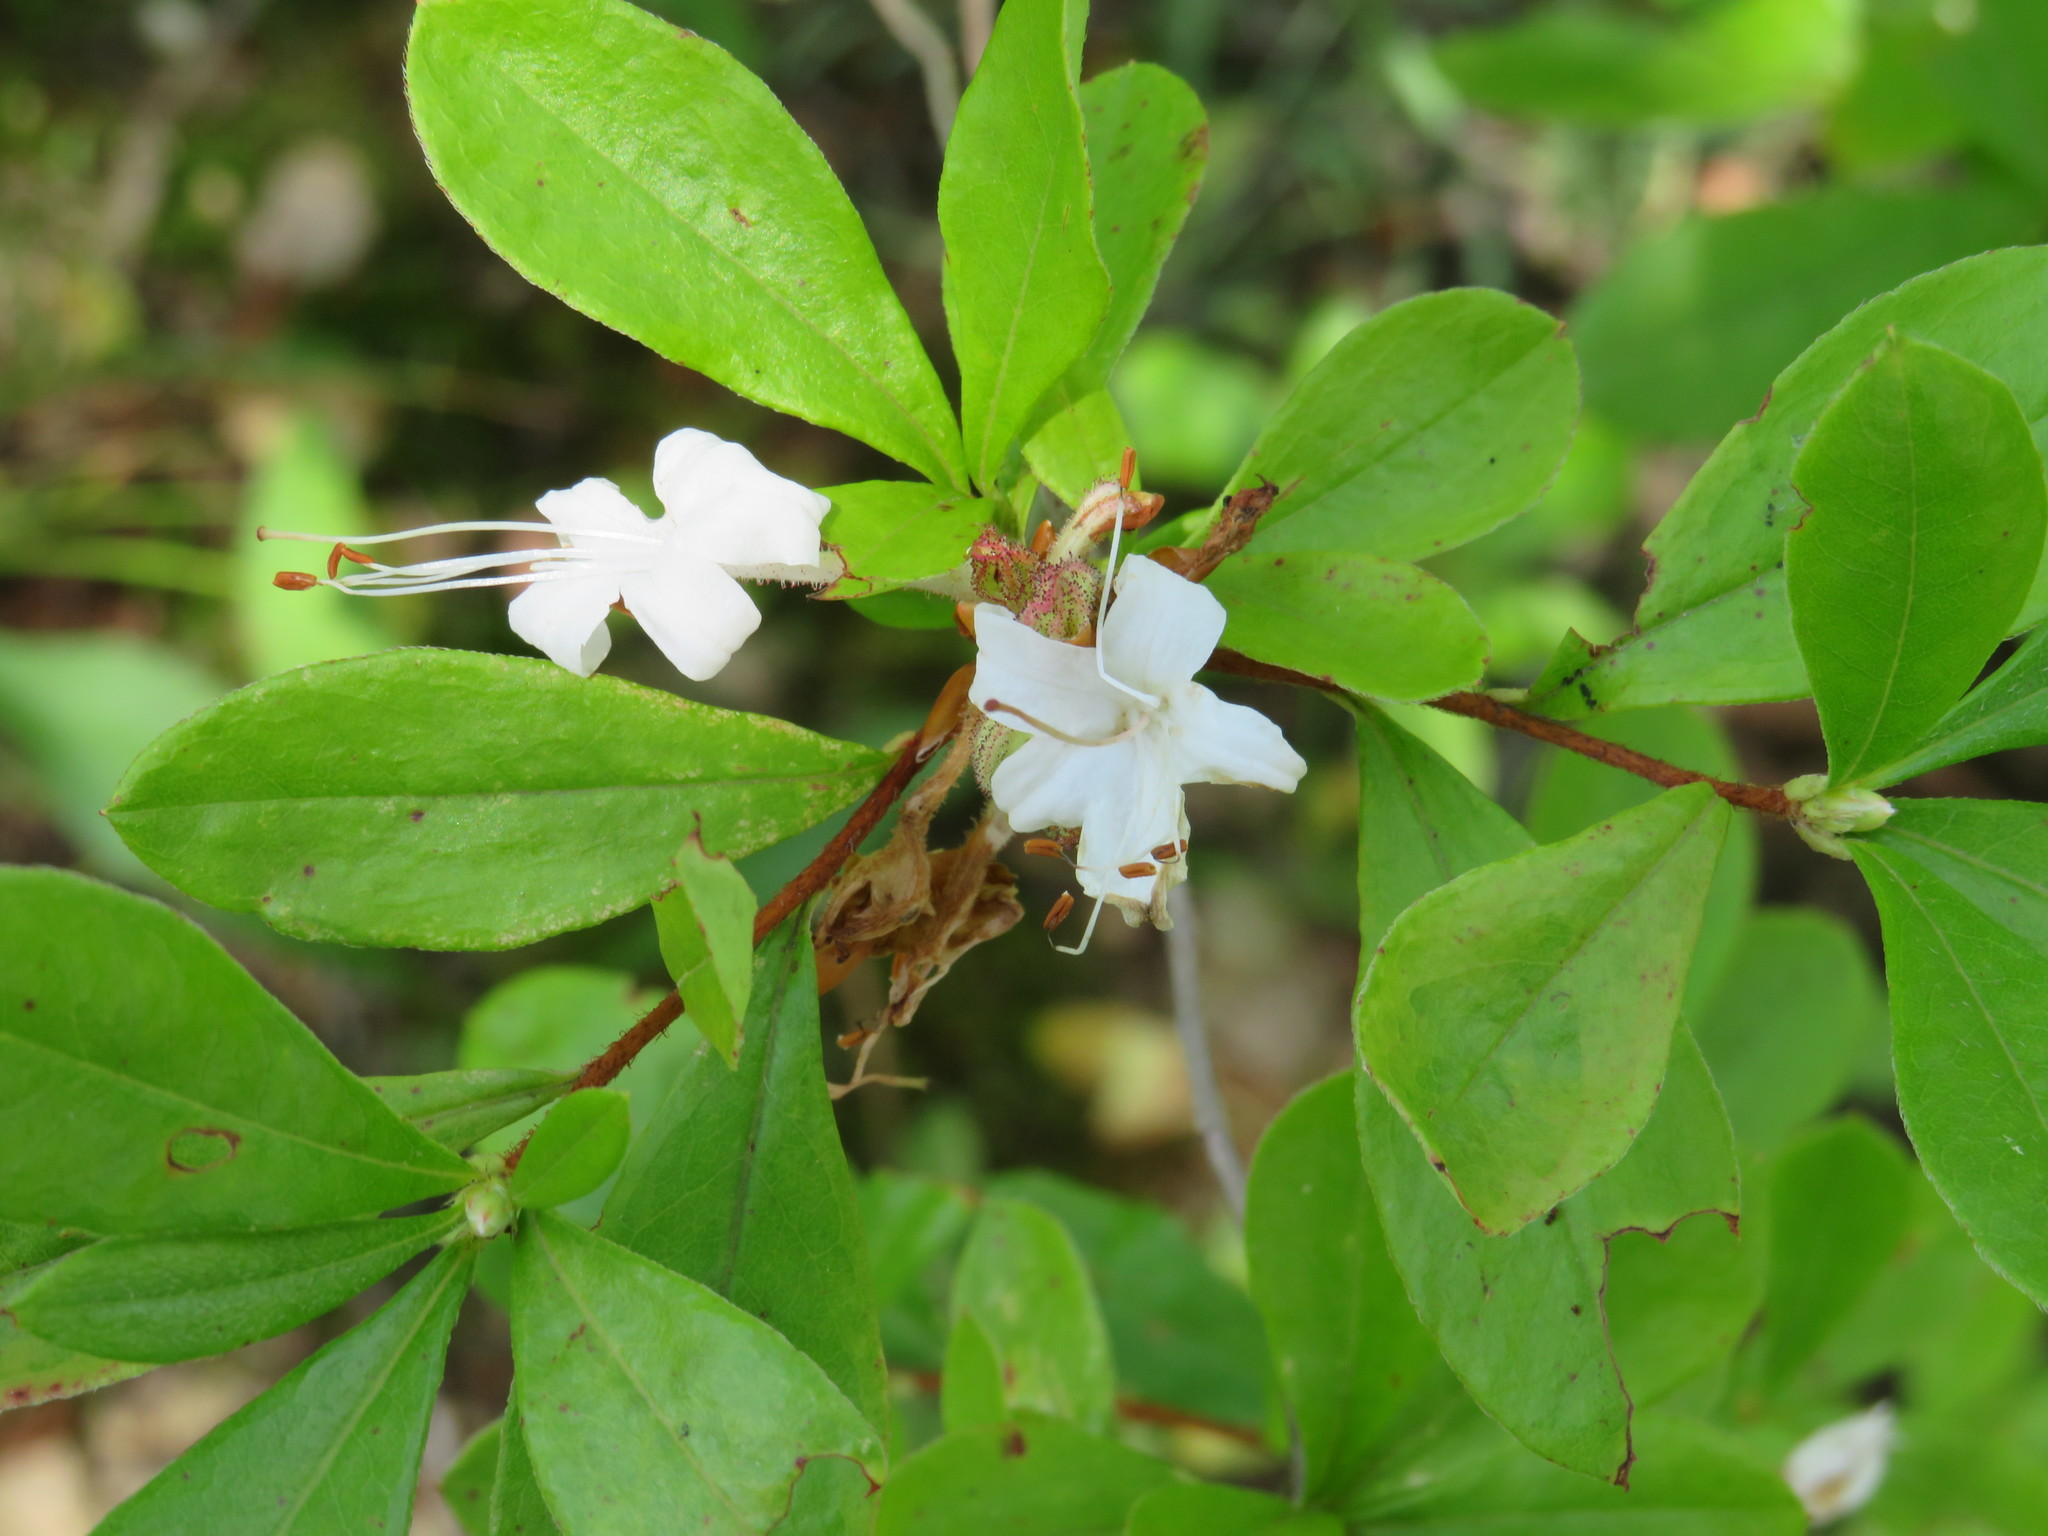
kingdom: Plantae
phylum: Tracheophyta
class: Magnoliopsida
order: Ericales
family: Ericaceae
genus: Rhododendron
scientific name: Rhododendron viscosum
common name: Clammy azalea
